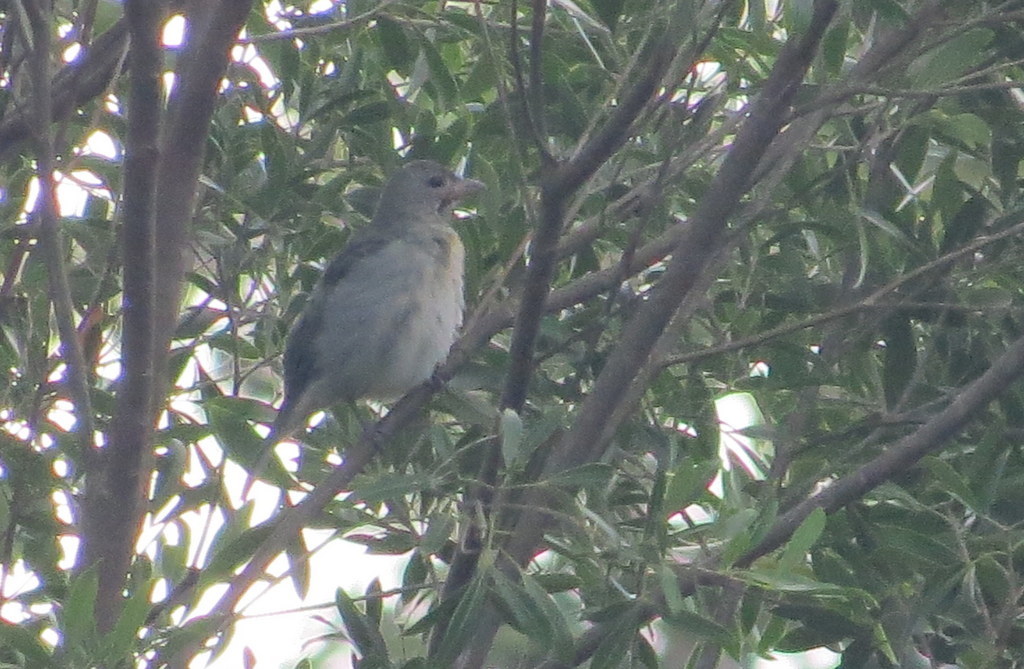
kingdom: Animalia
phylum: Chordata
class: Aves
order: Passeriformes
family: Thraupidae
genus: Thraupis
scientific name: Thraupis sayaca
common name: Sayaca tanager
